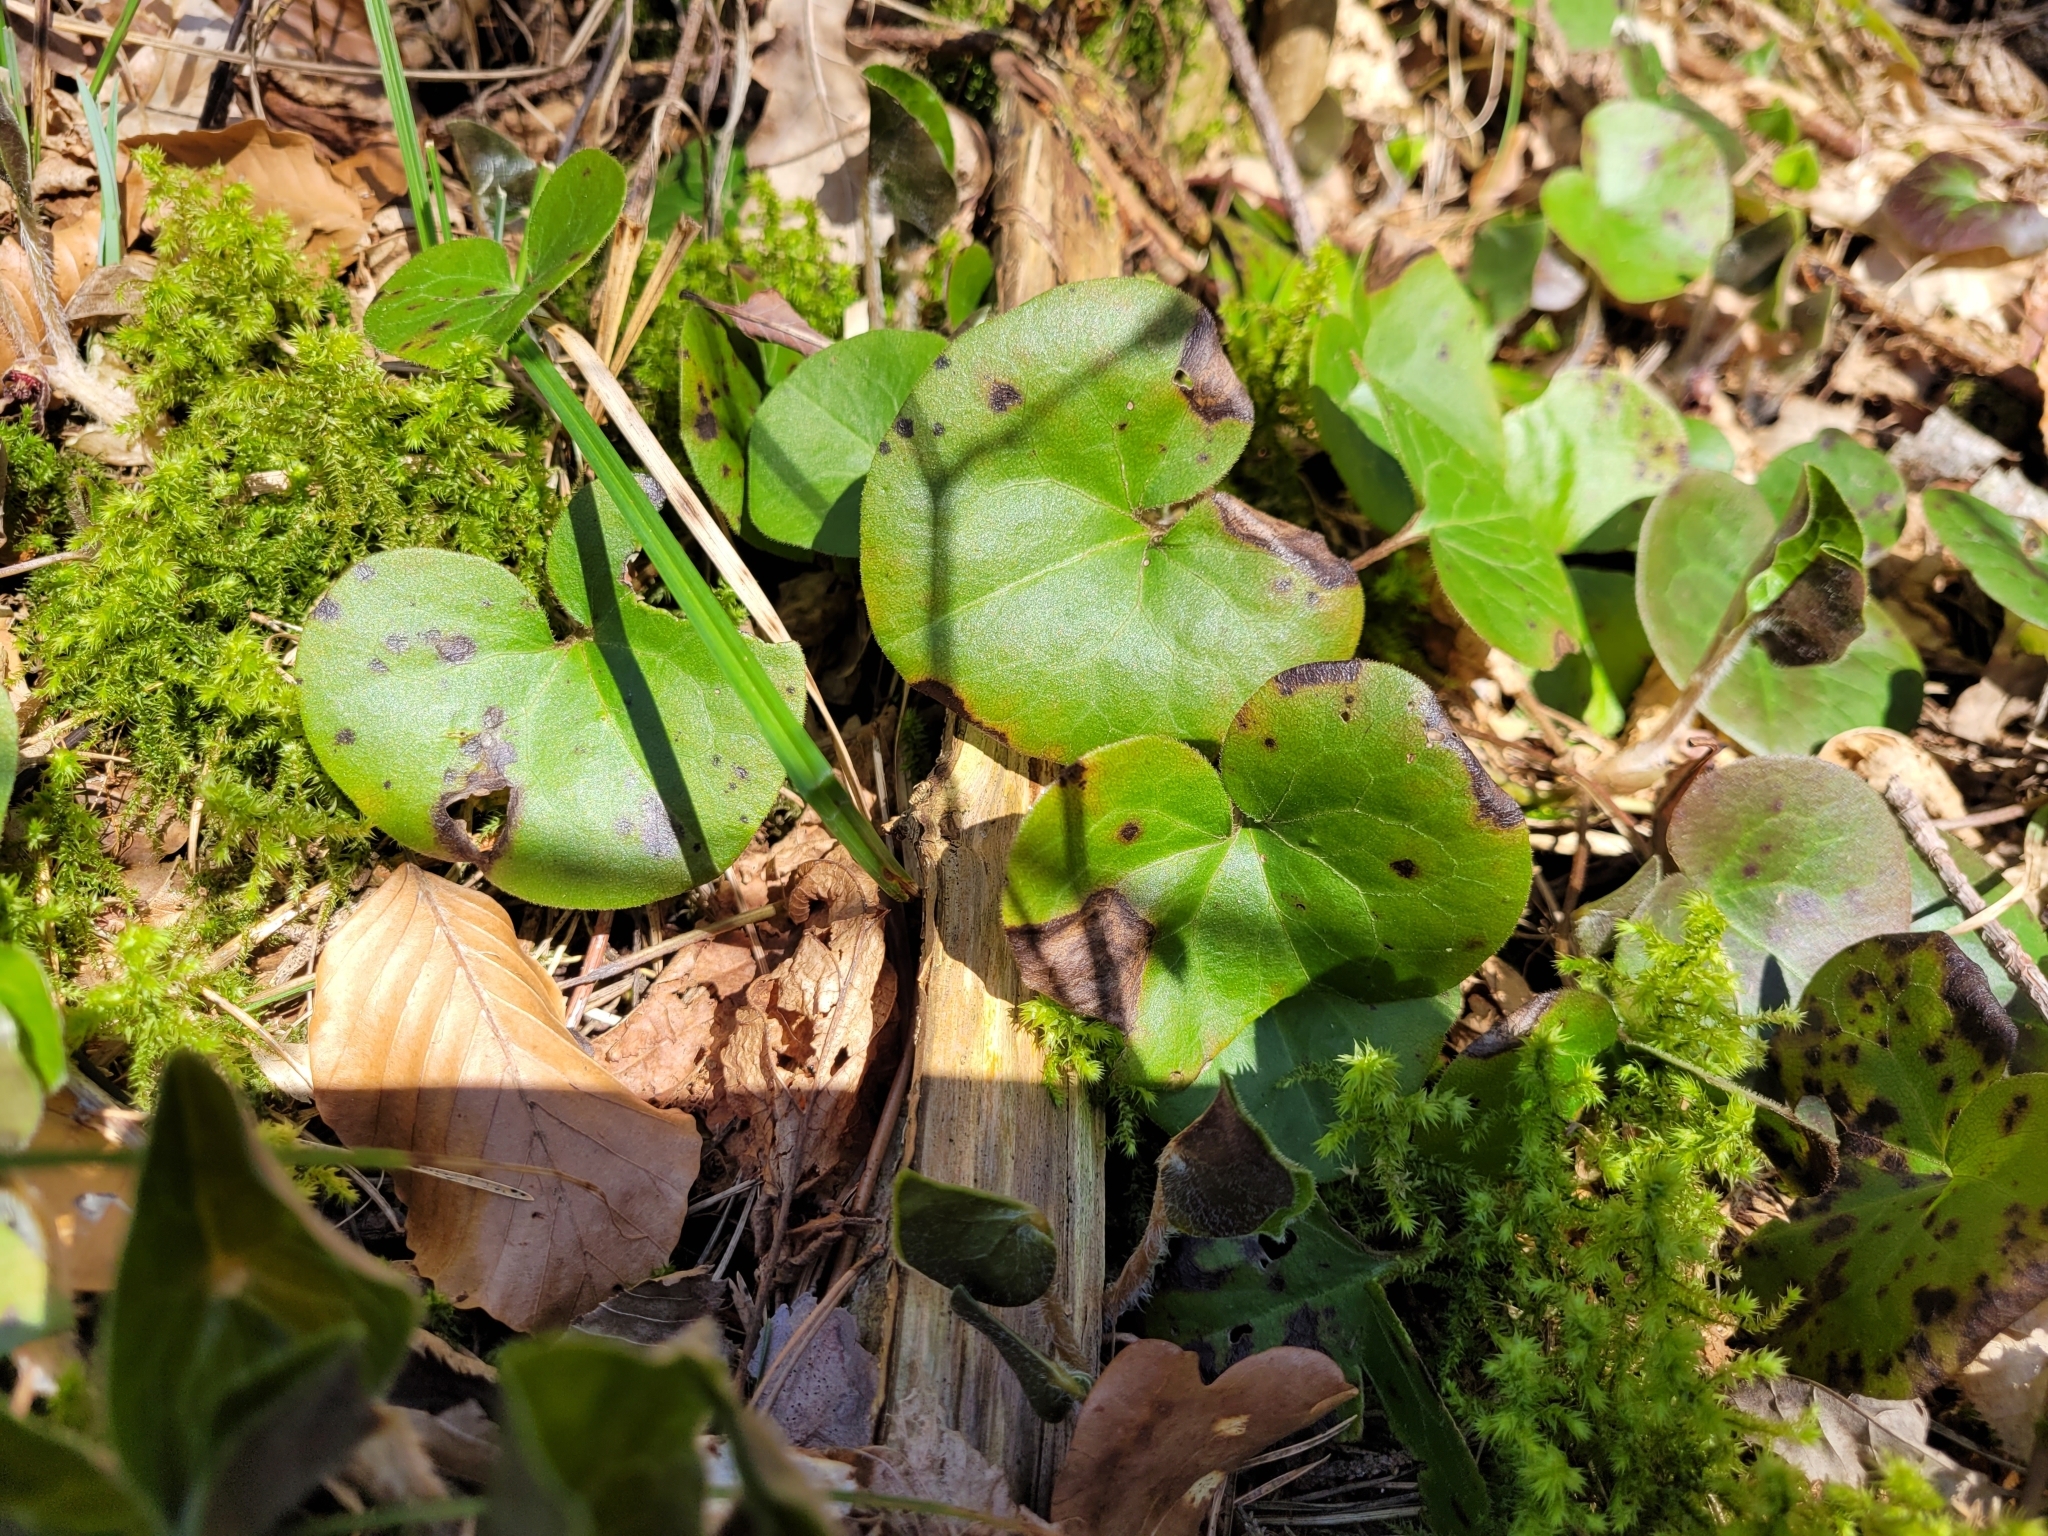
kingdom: Plantae
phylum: Tracheophyta
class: Magnoliopsida
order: Piperales
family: Aristolochiaceae
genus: Asarum
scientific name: Asarum europaeum
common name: Asarabacca
